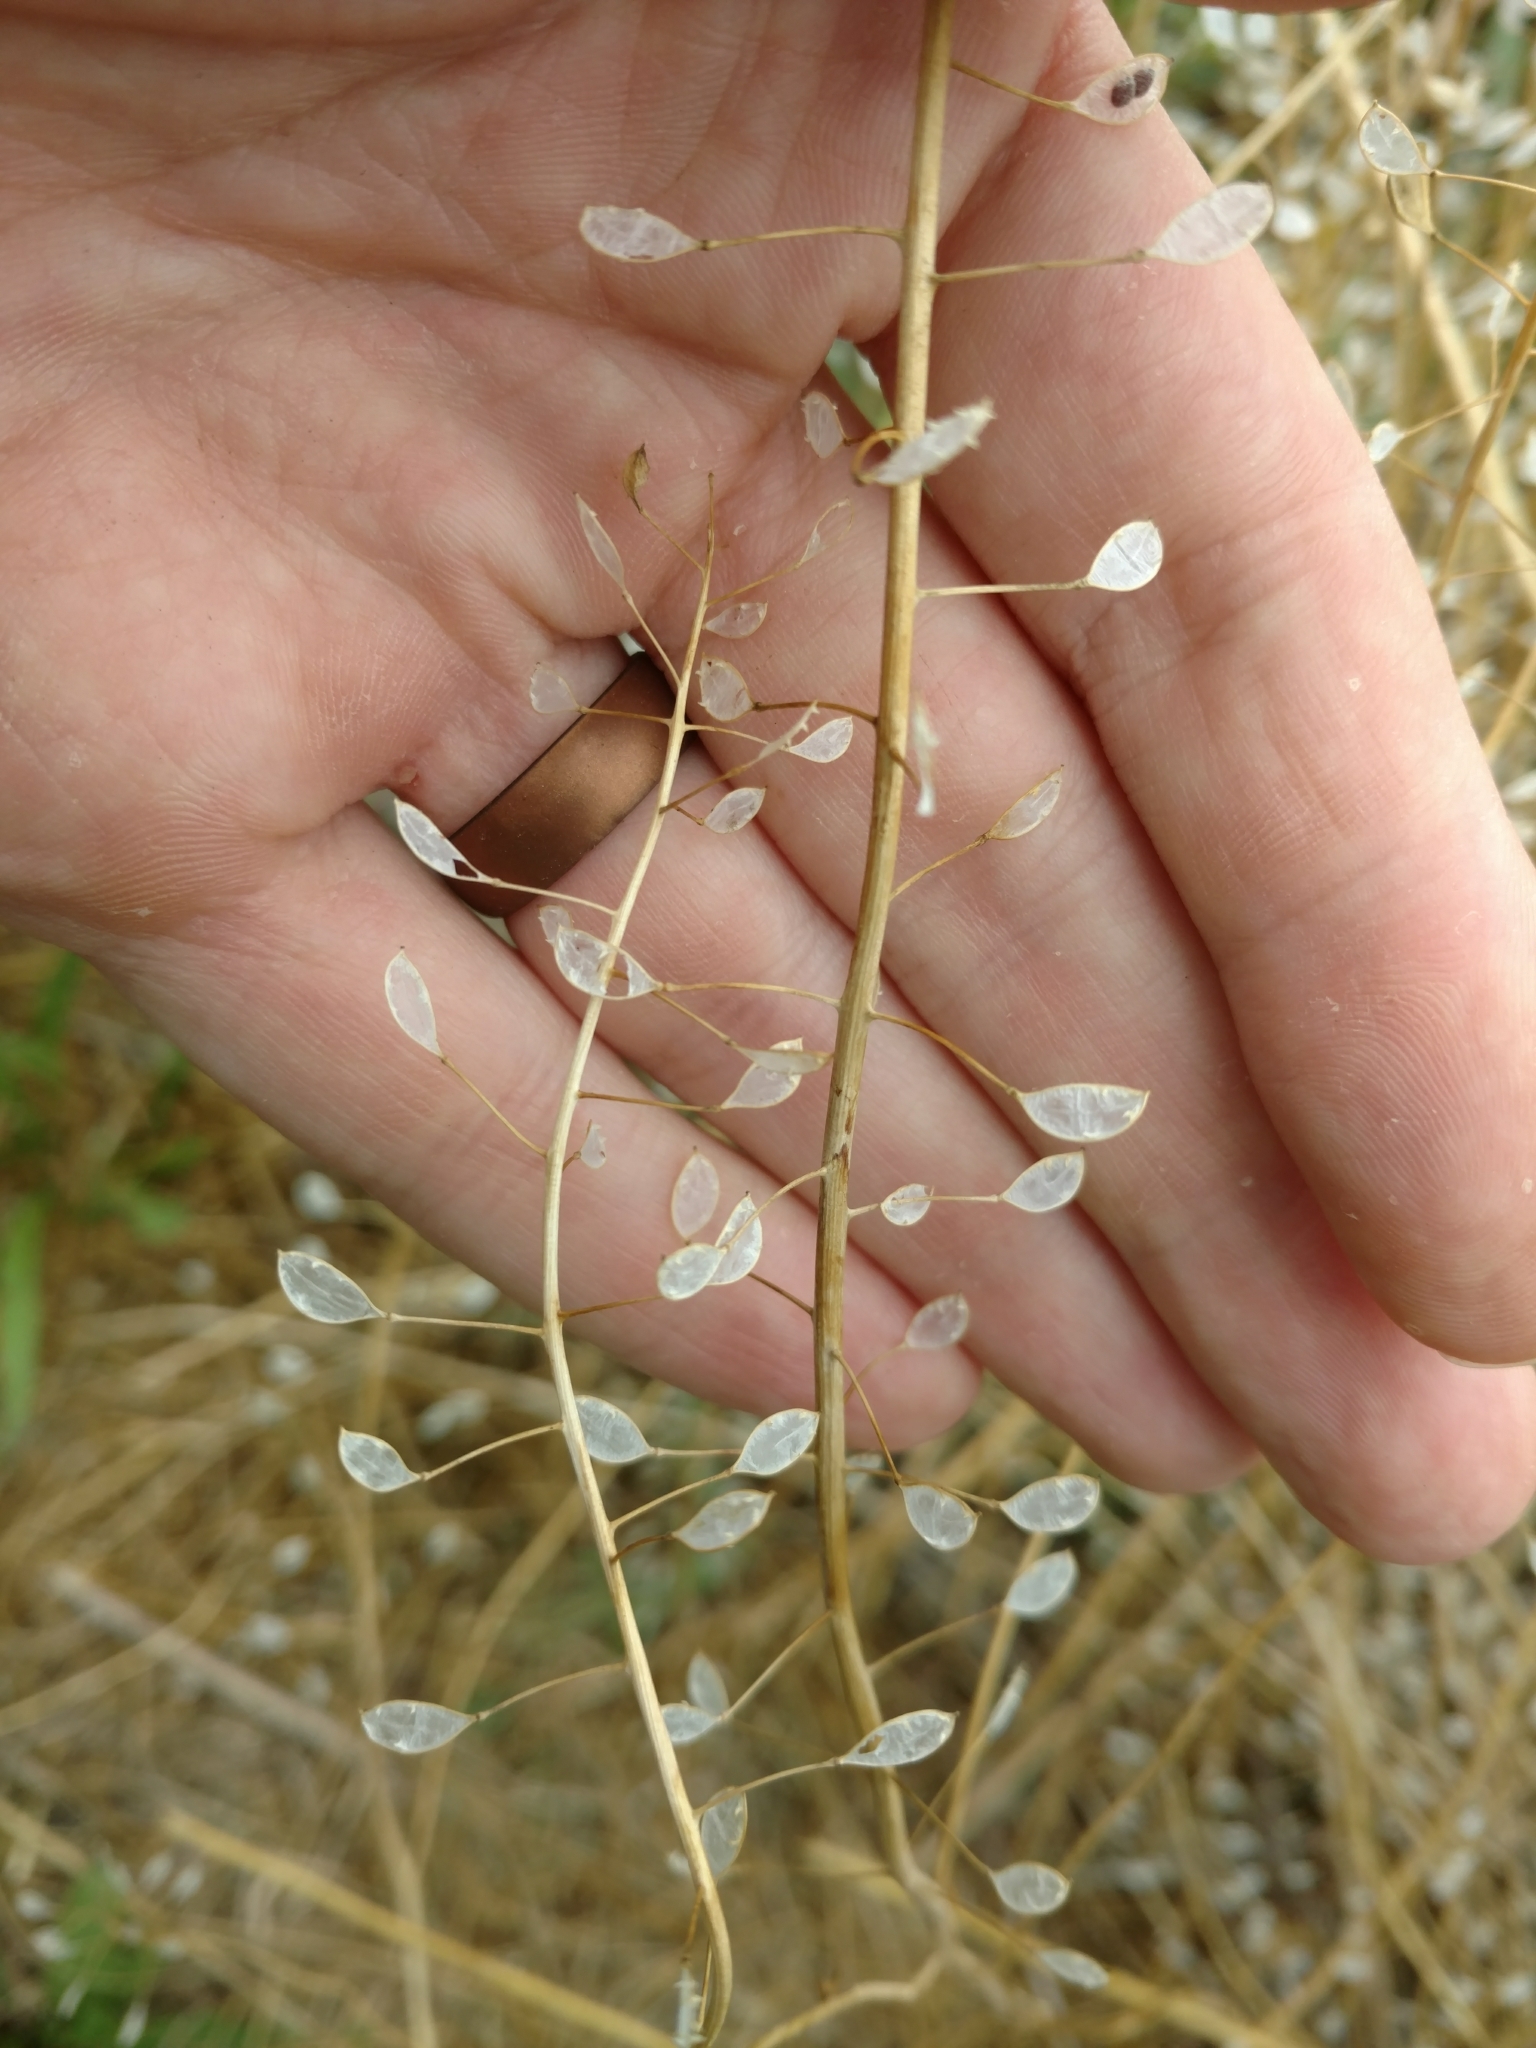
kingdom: Plantae
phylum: Tracheophyta
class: Magnoliopsida
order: Brassicales
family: Brassicaceae
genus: Mummenhoffia
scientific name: Mummenhoffia alliacea
